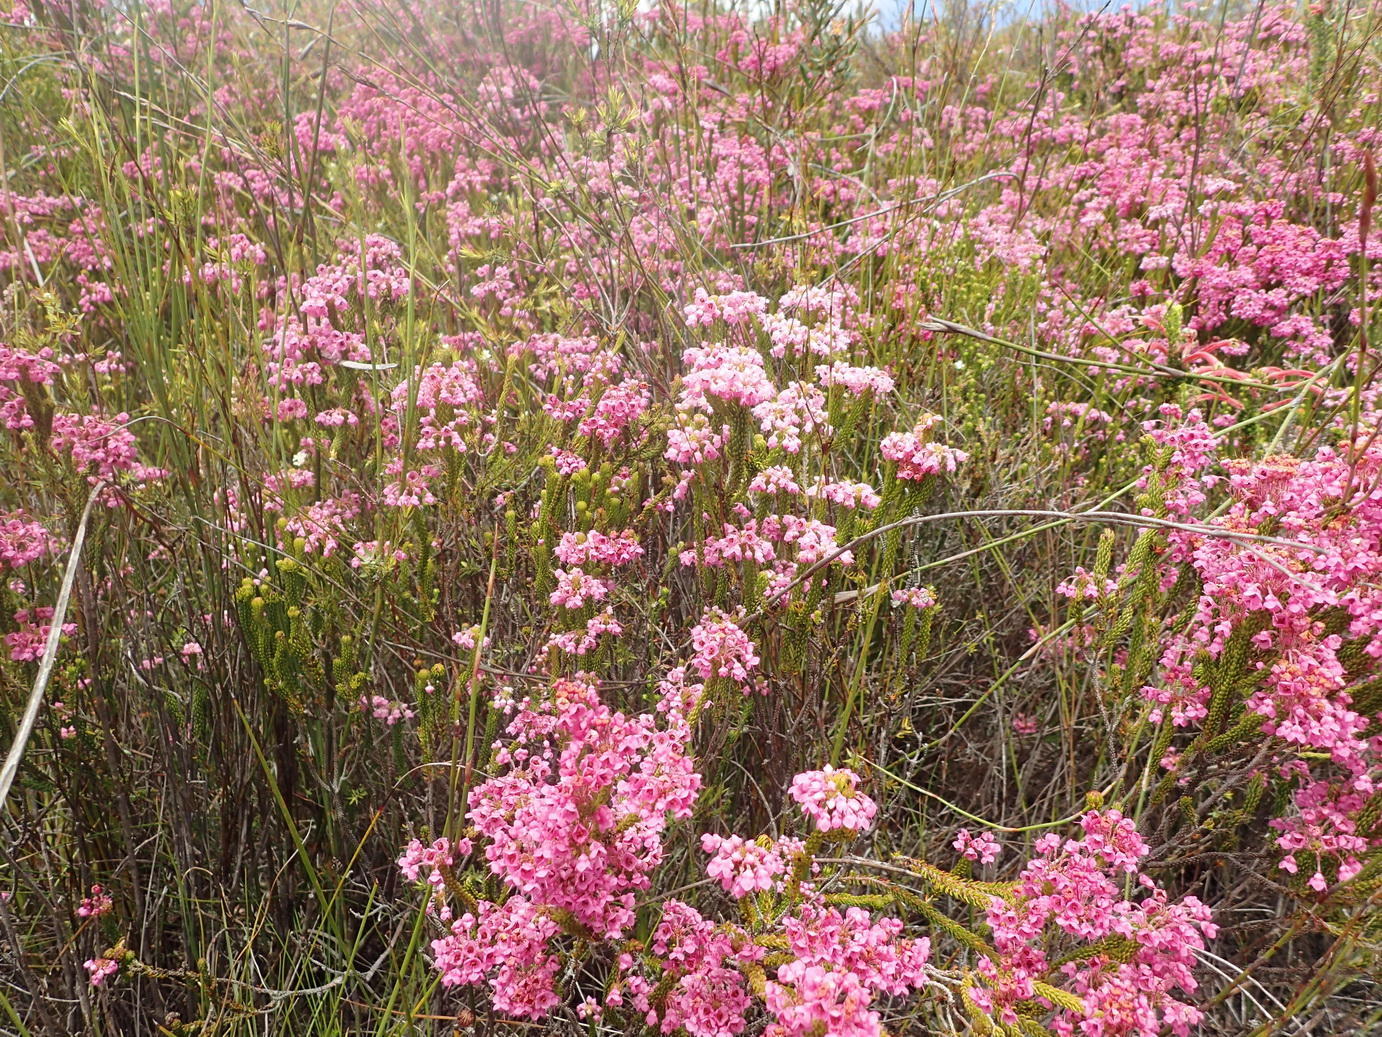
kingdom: Plantae
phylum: Tracheophyta
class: Magnoliopsida
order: Ericales
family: Ericaceae
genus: Erica
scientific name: Erica seriphiifolia
